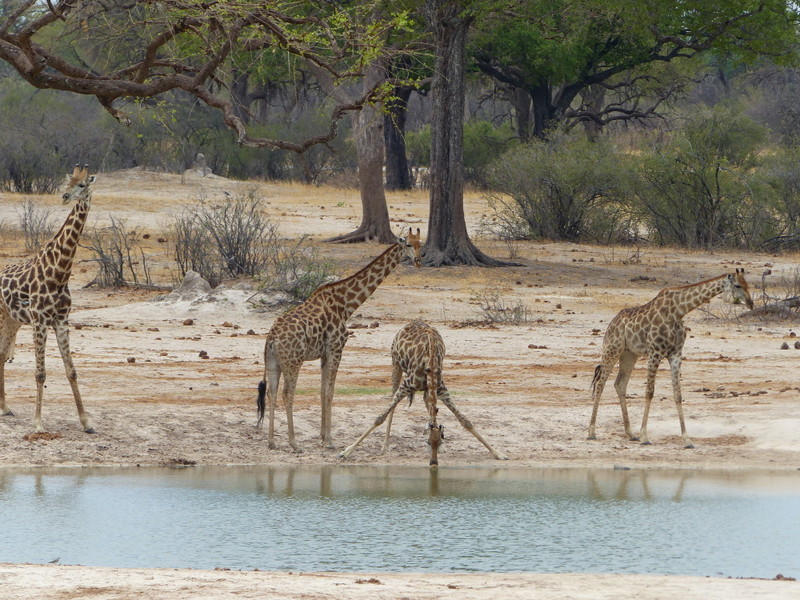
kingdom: Animalia
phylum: Chordata
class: Mammalia
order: Artiodactyla
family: Giraffidae
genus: Giraffa
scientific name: Giraffa giraffa
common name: Southern giraffe
